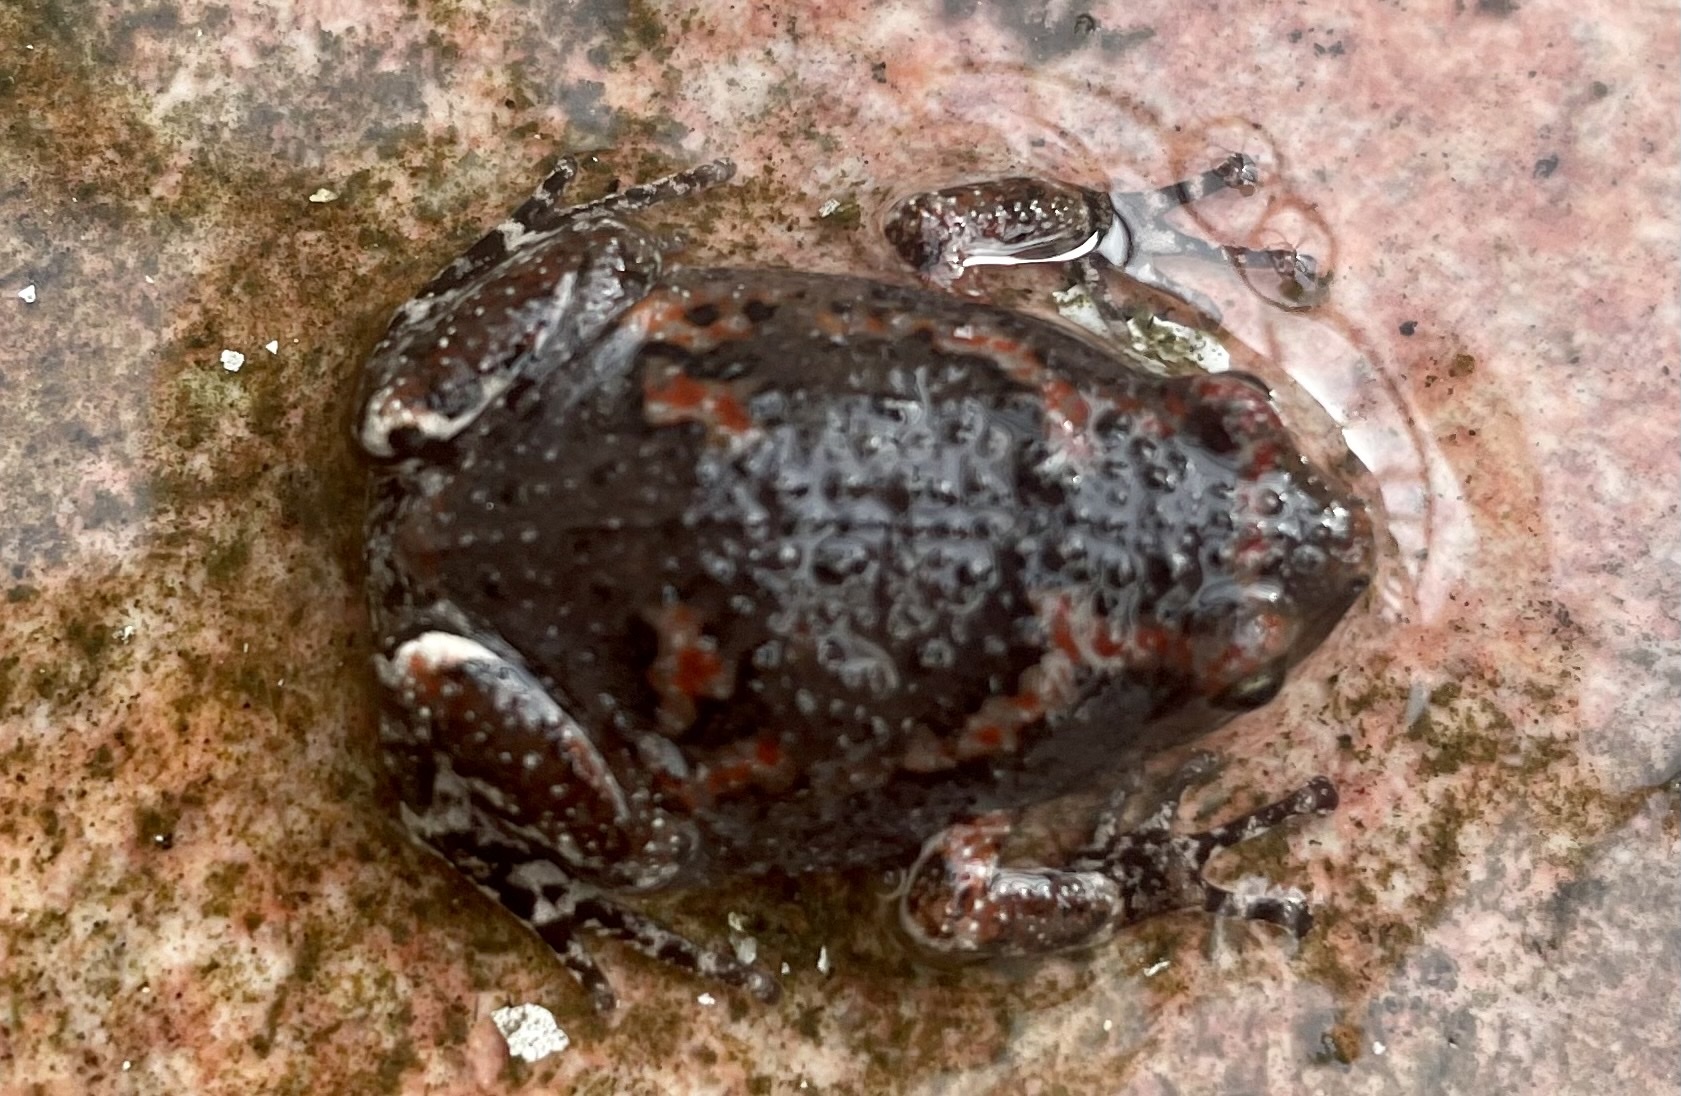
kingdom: Animalia
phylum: Chordata
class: Amphibia
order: Anura
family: Microhylidae
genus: Uperodon
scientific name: Uperodon taprobanicus
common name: Ceylon kaloula
